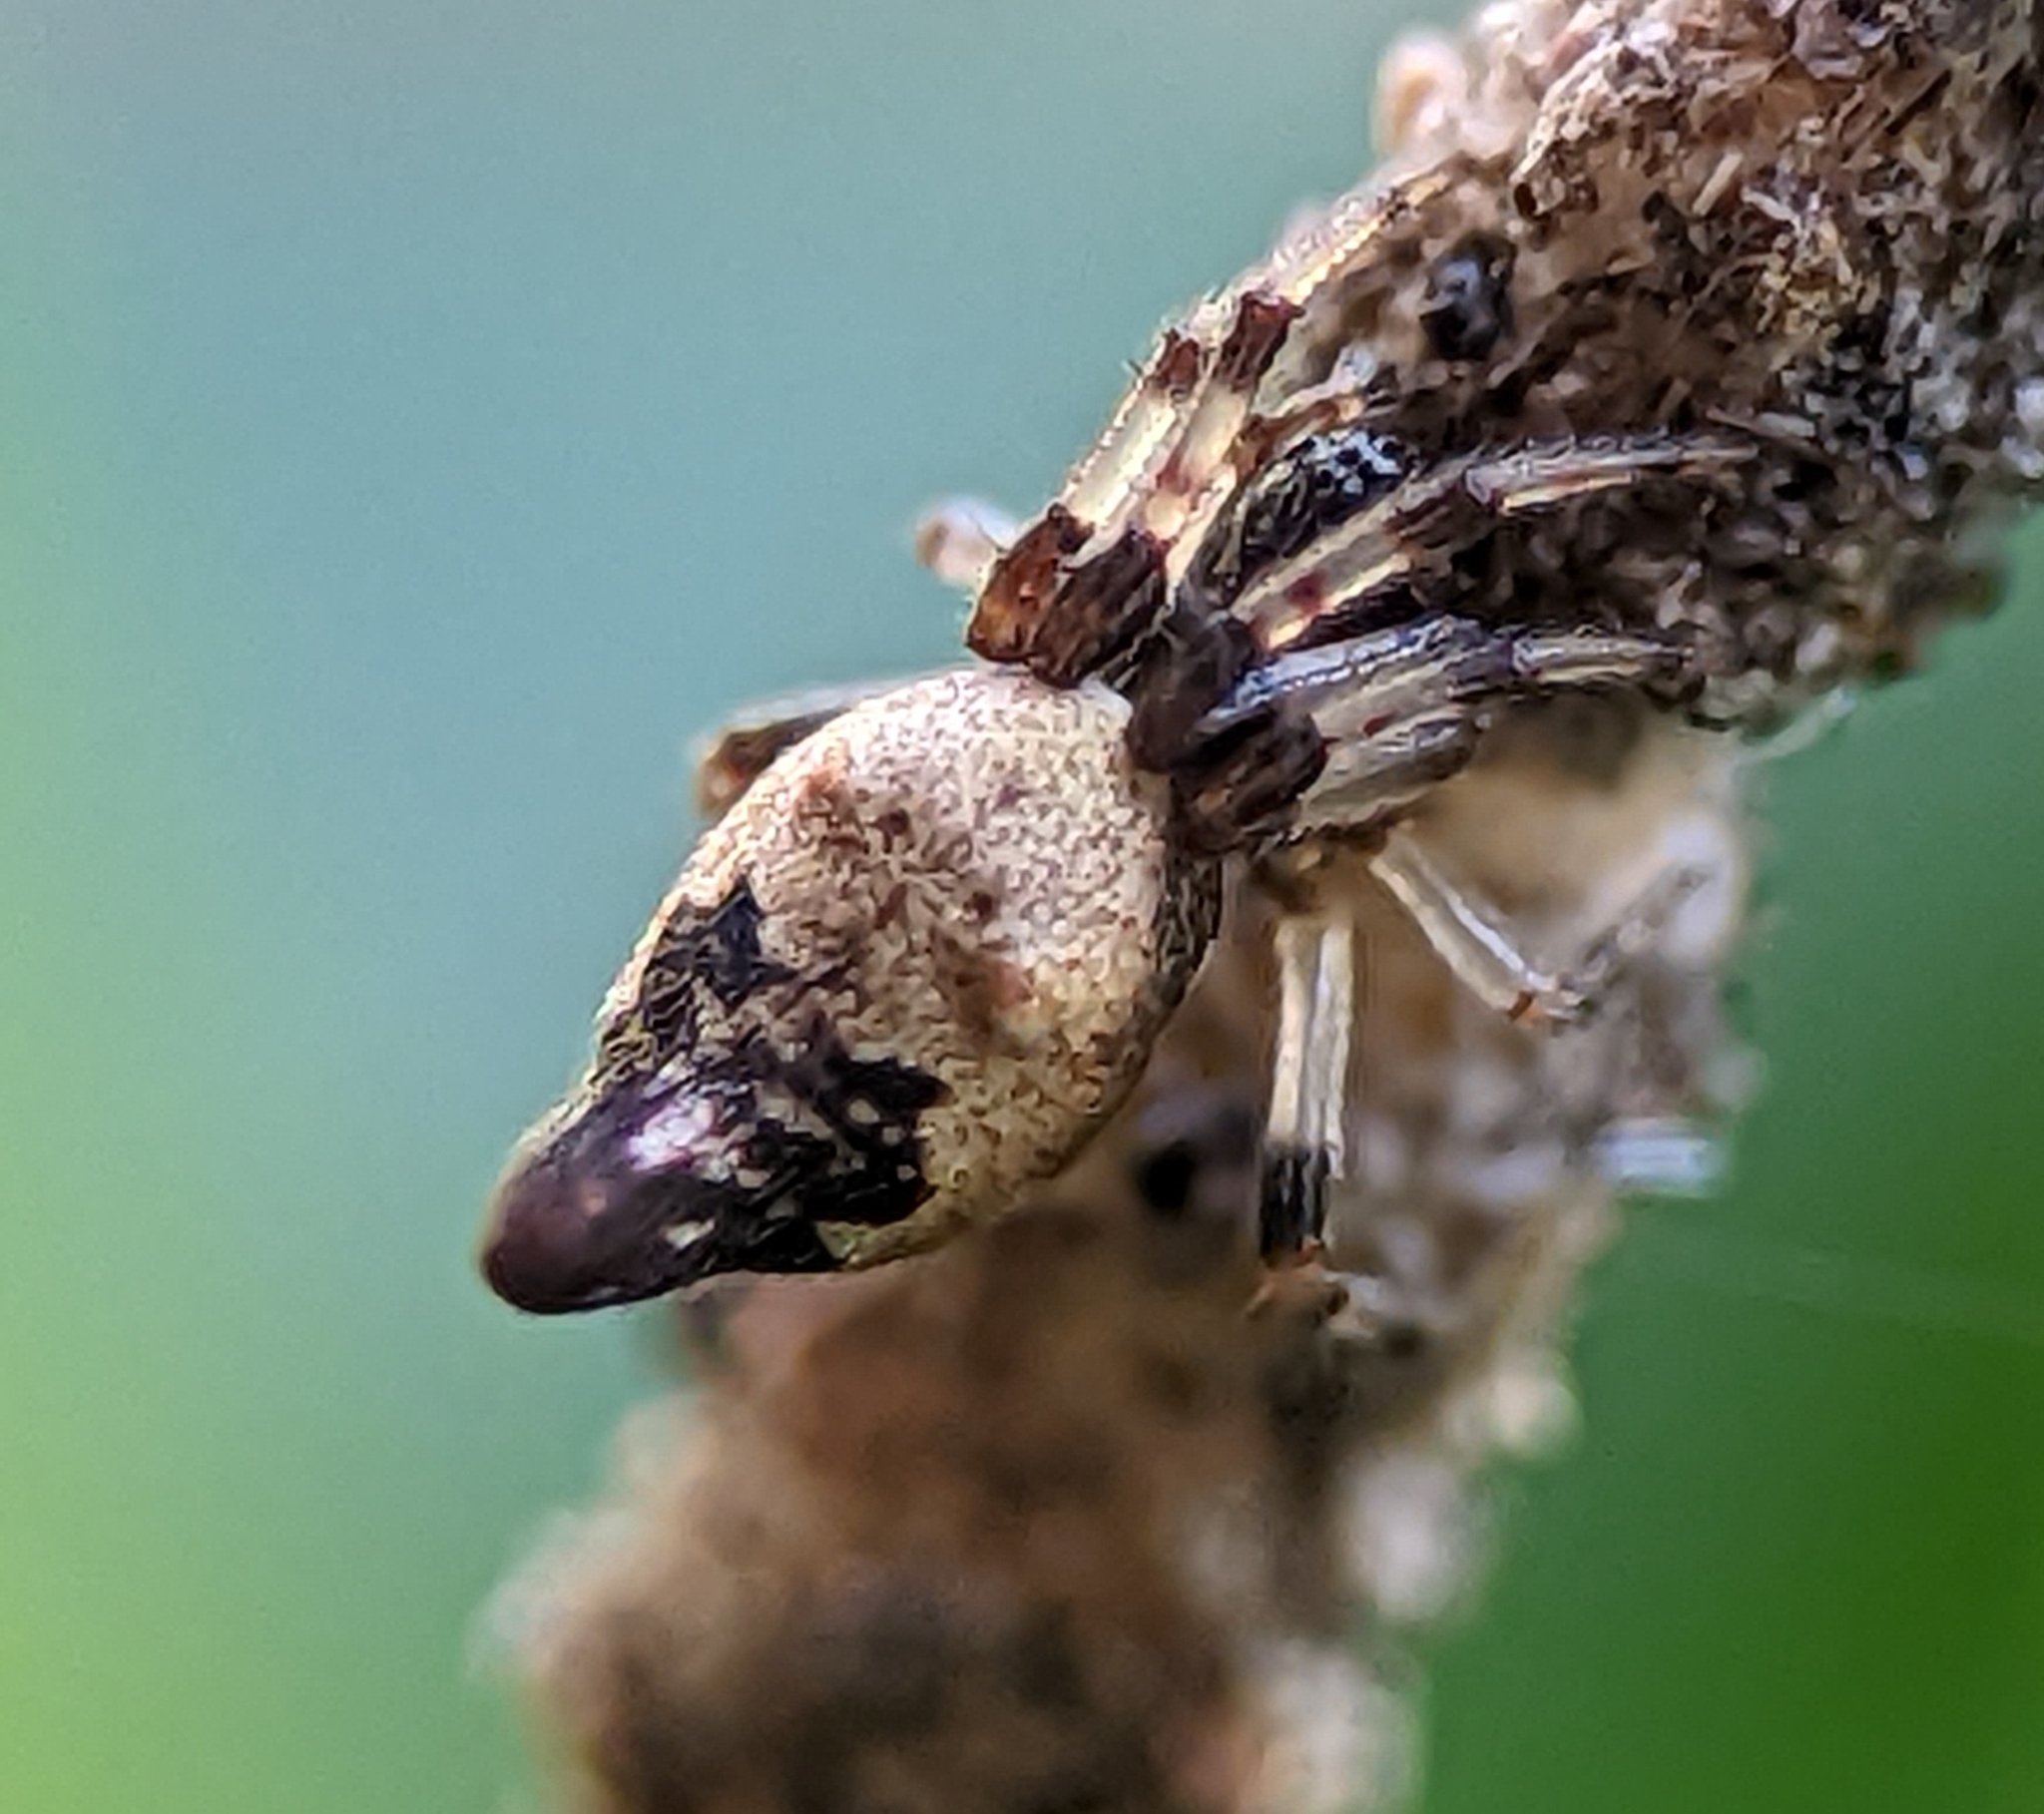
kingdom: Animalia
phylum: Arthropoda
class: Arachnida
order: Araneae
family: Araneidae
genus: Cyclosa
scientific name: Cyclosa turbinata
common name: Orb weavers
